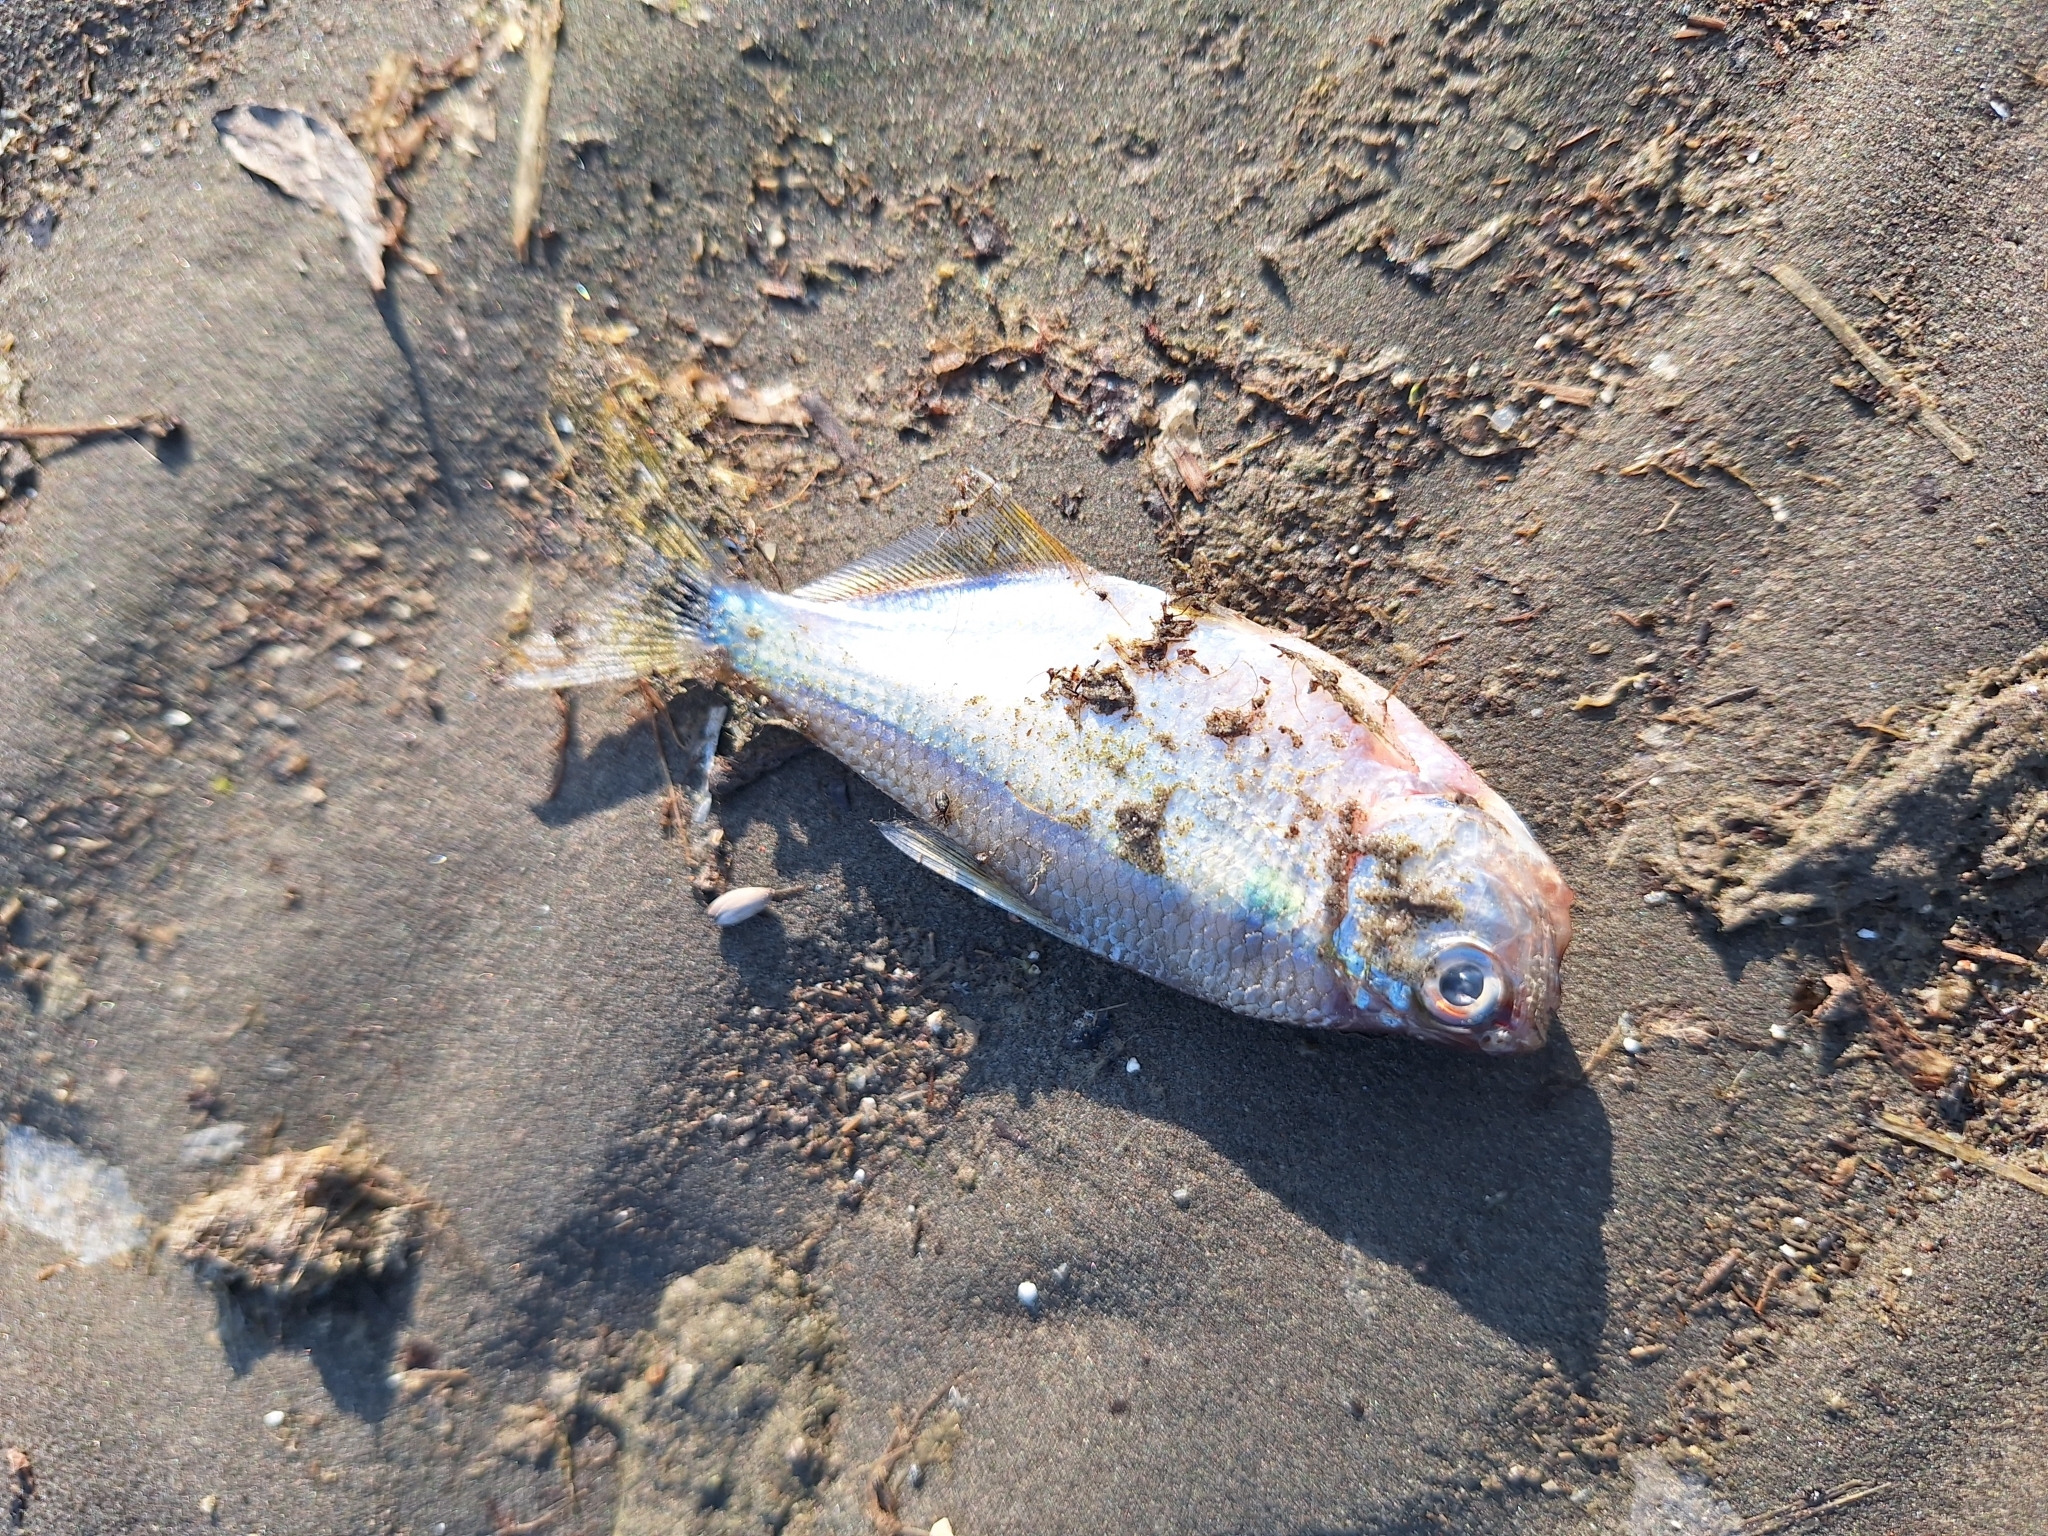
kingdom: Animalia
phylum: Chordata
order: Characiformes
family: Characidae
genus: Astyanax
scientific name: Astyanax lacustris
